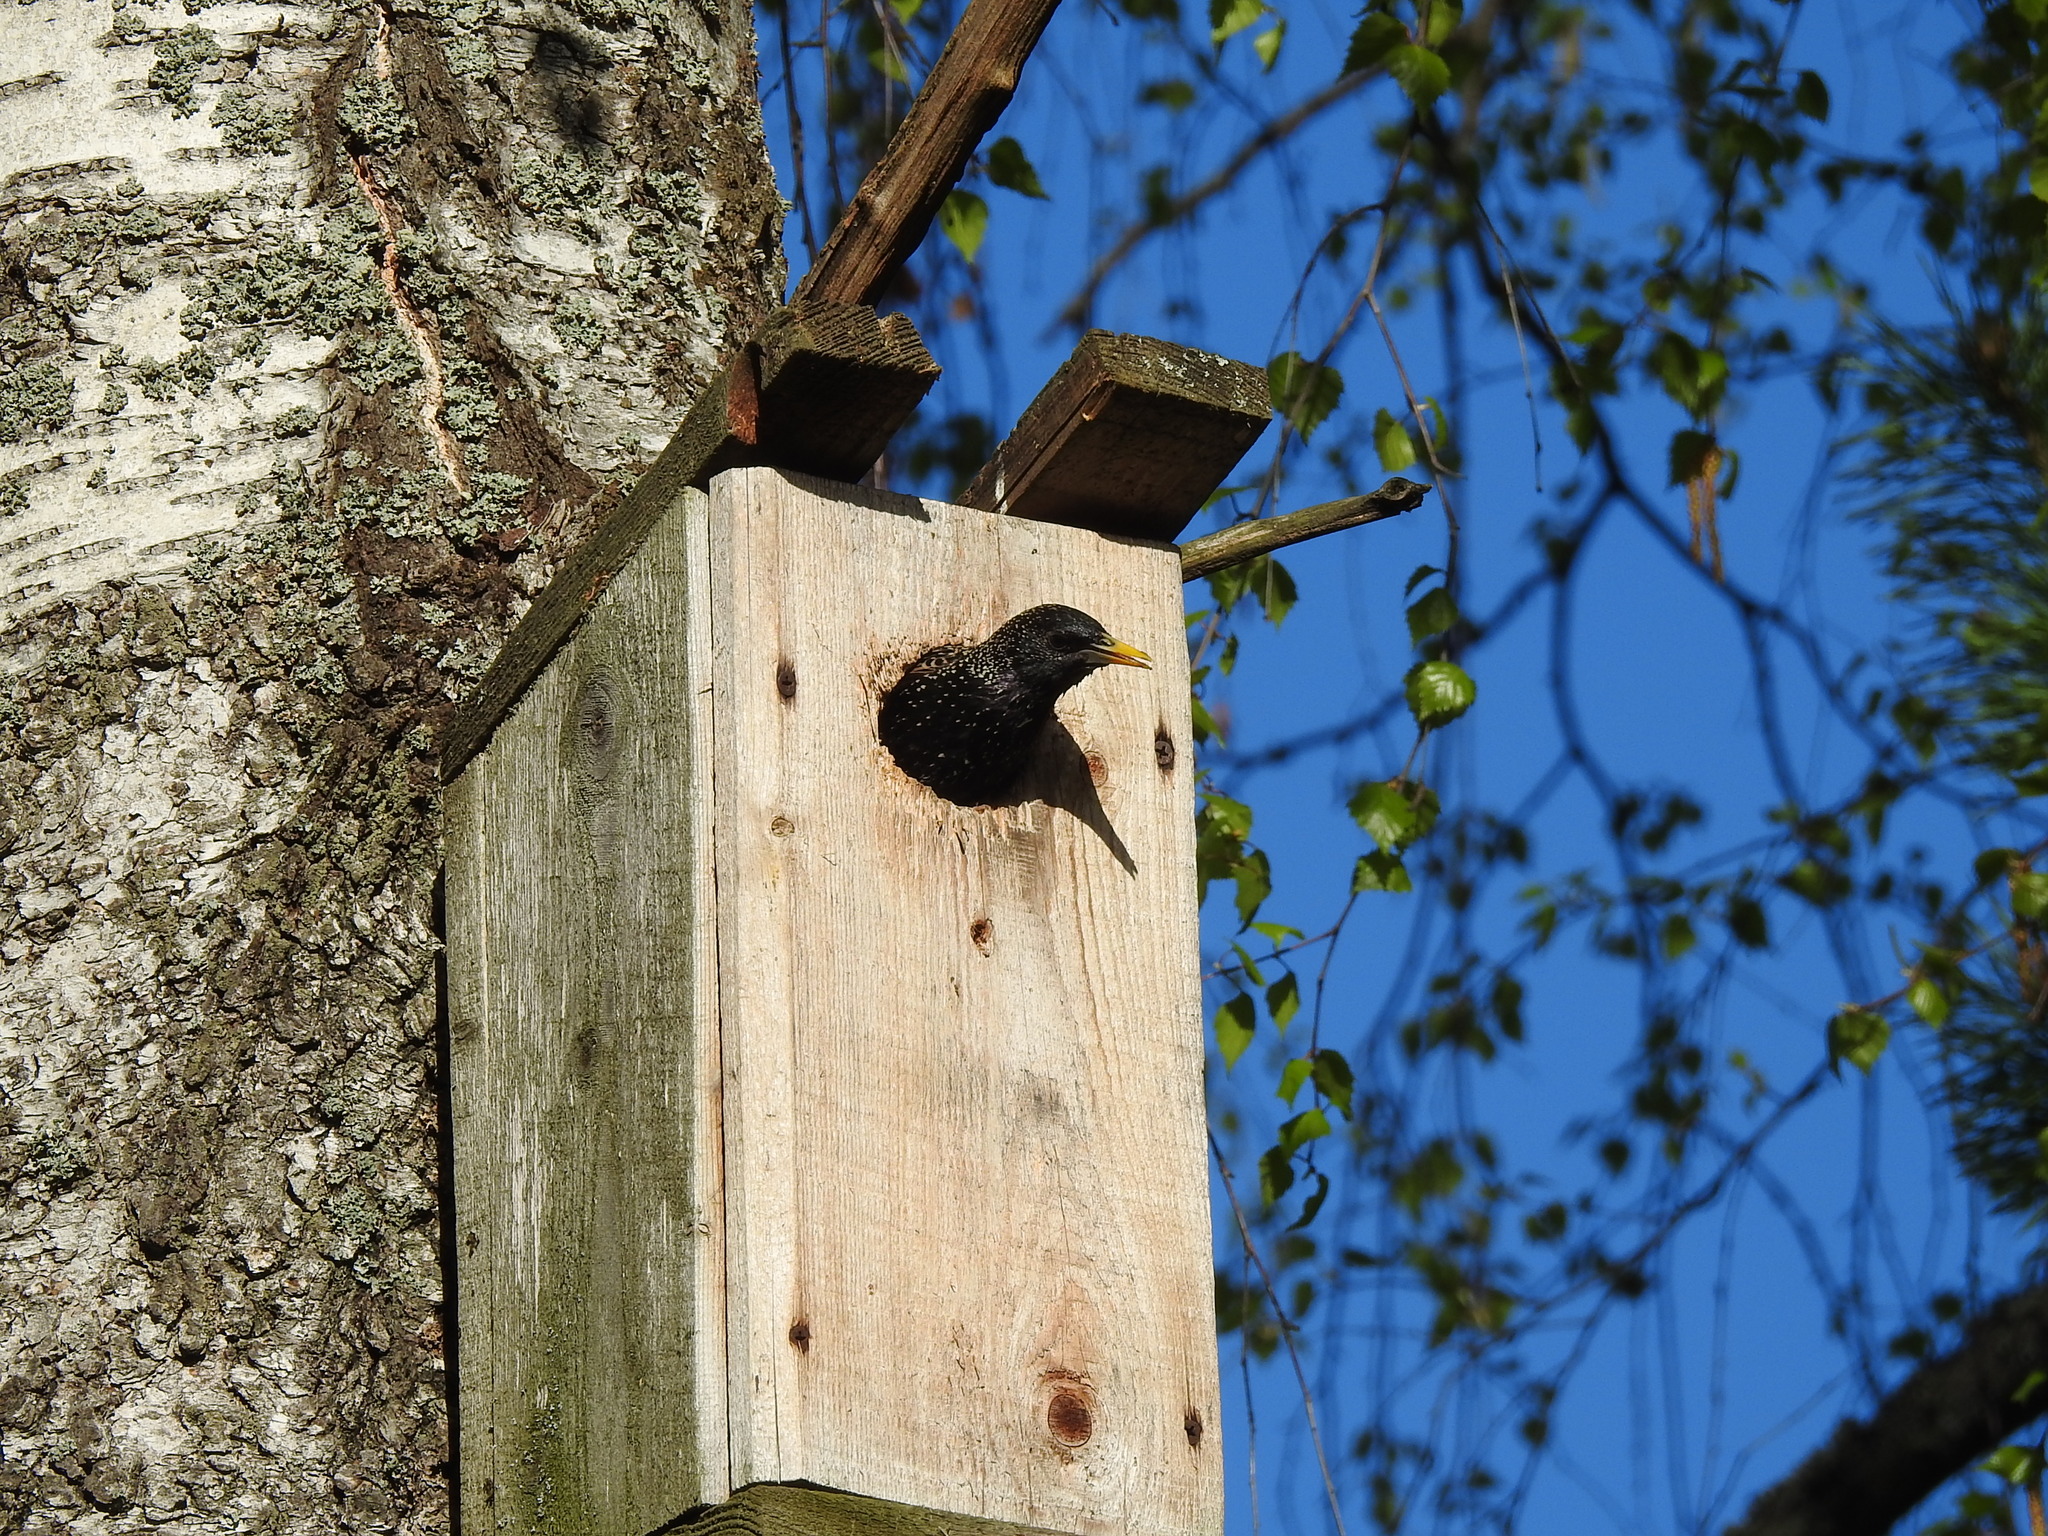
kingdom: Animalia
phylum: Chordata
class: Aves
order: Passeriformes
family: Sturnidae
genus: Sturnus
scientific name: Sturnus vulgaris
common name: Common starling
